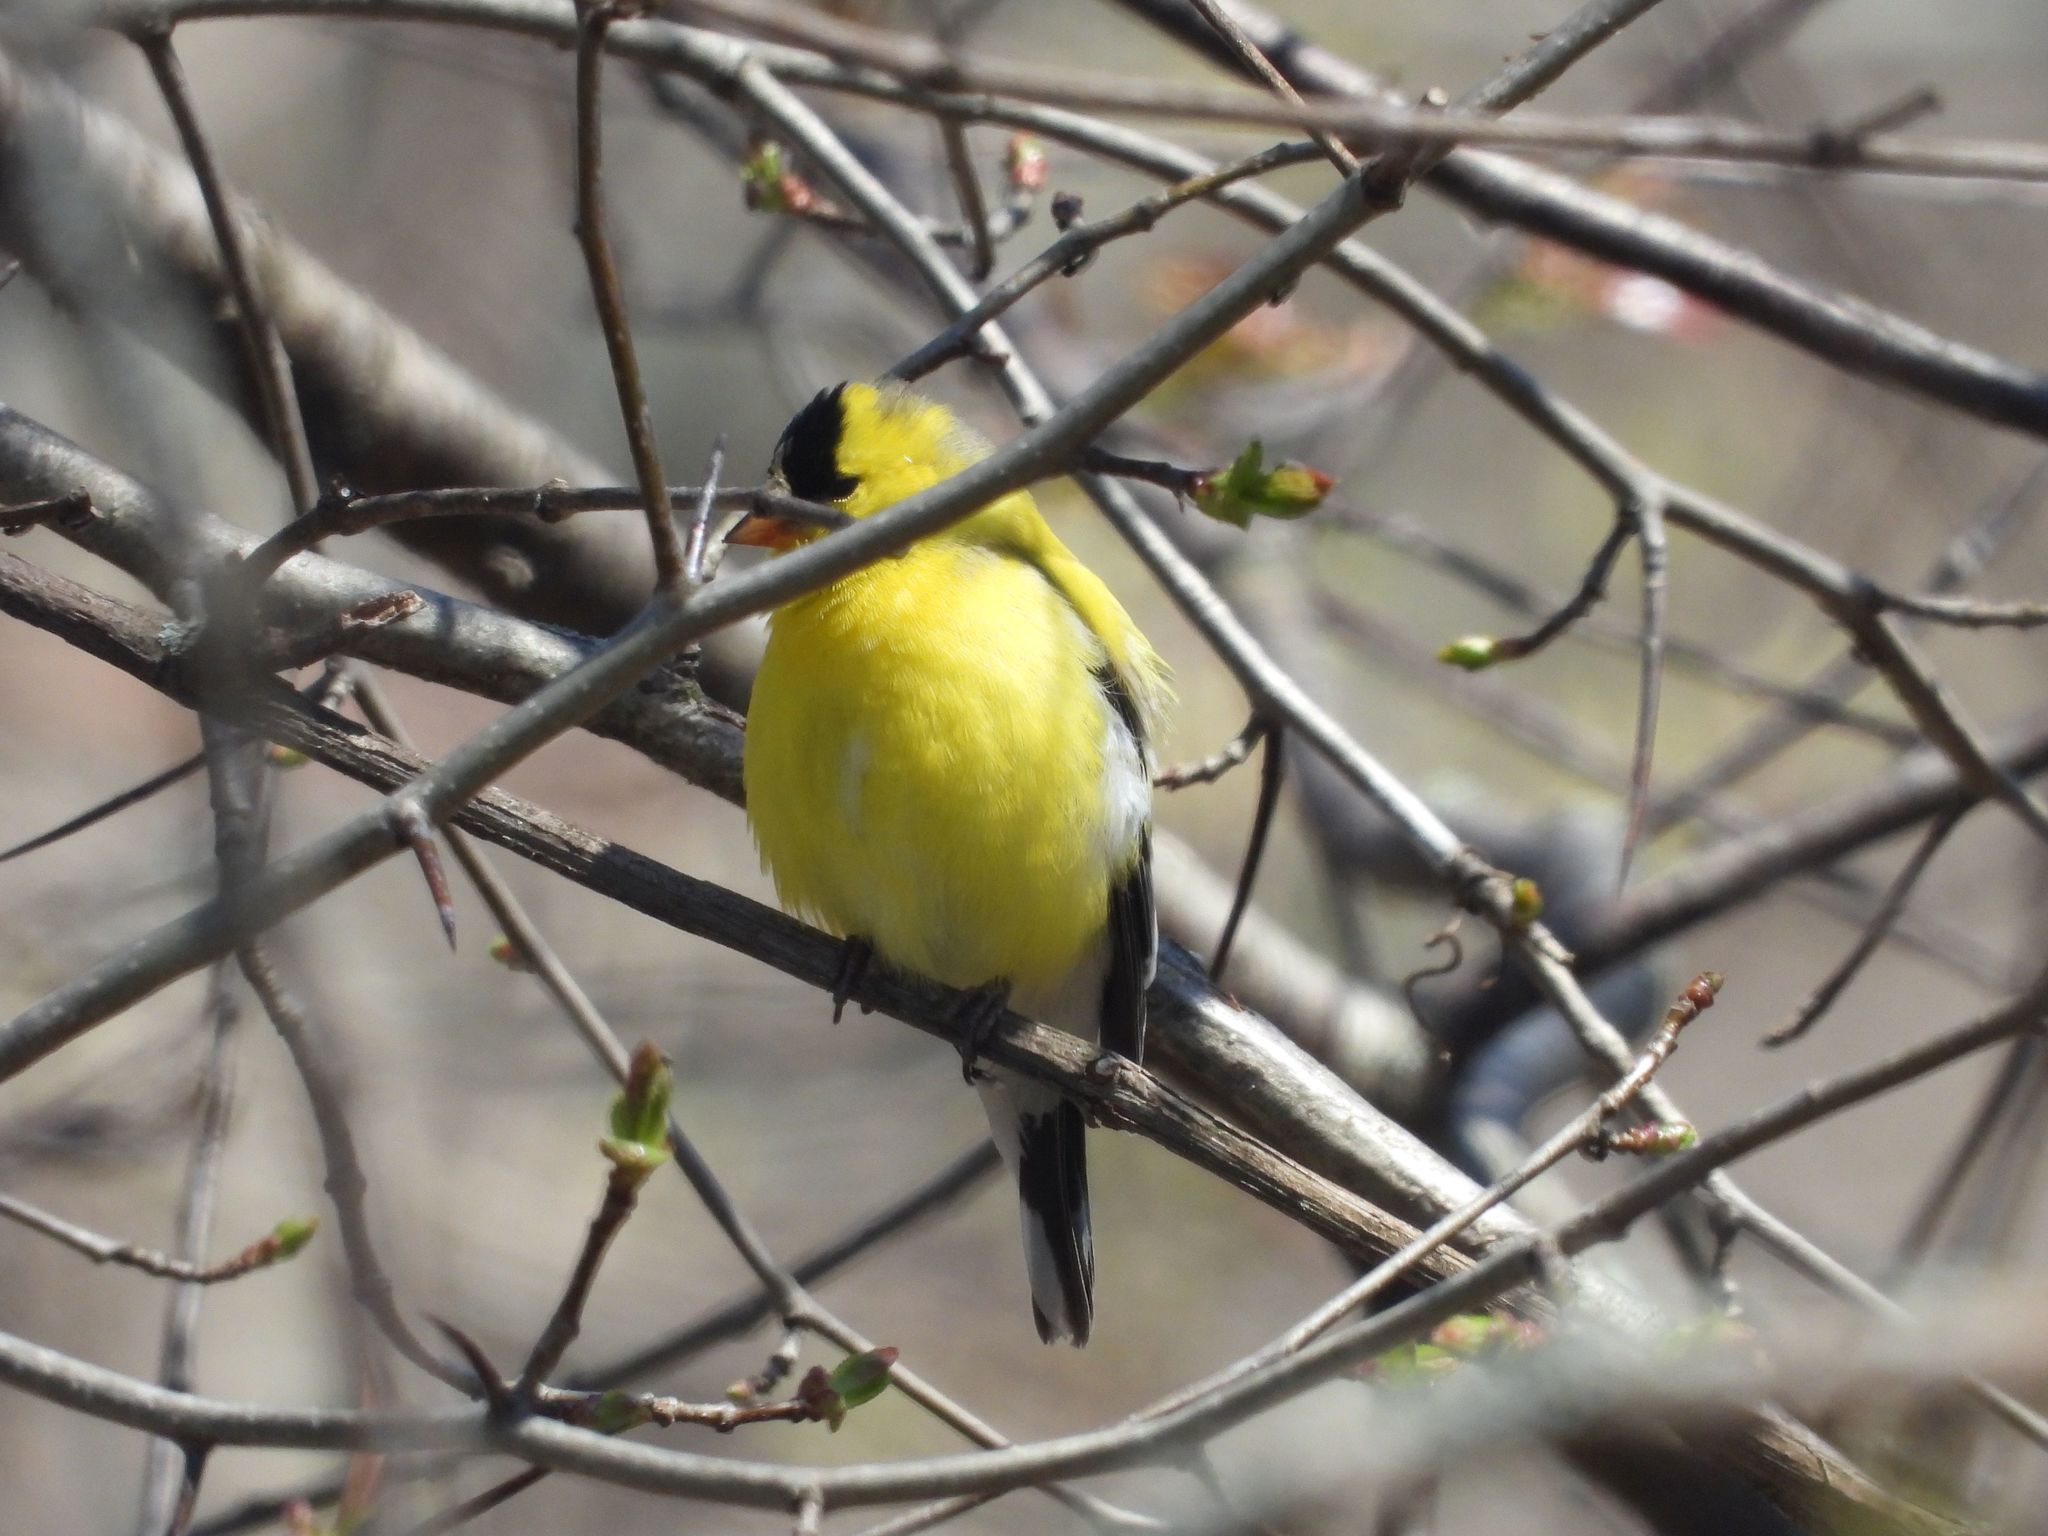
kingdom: Animalia
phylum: Chordata
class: Aves
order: Passeriformes
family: Fringillidae
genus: Spinus
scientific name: Spinus tristis
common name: American goldfinch
